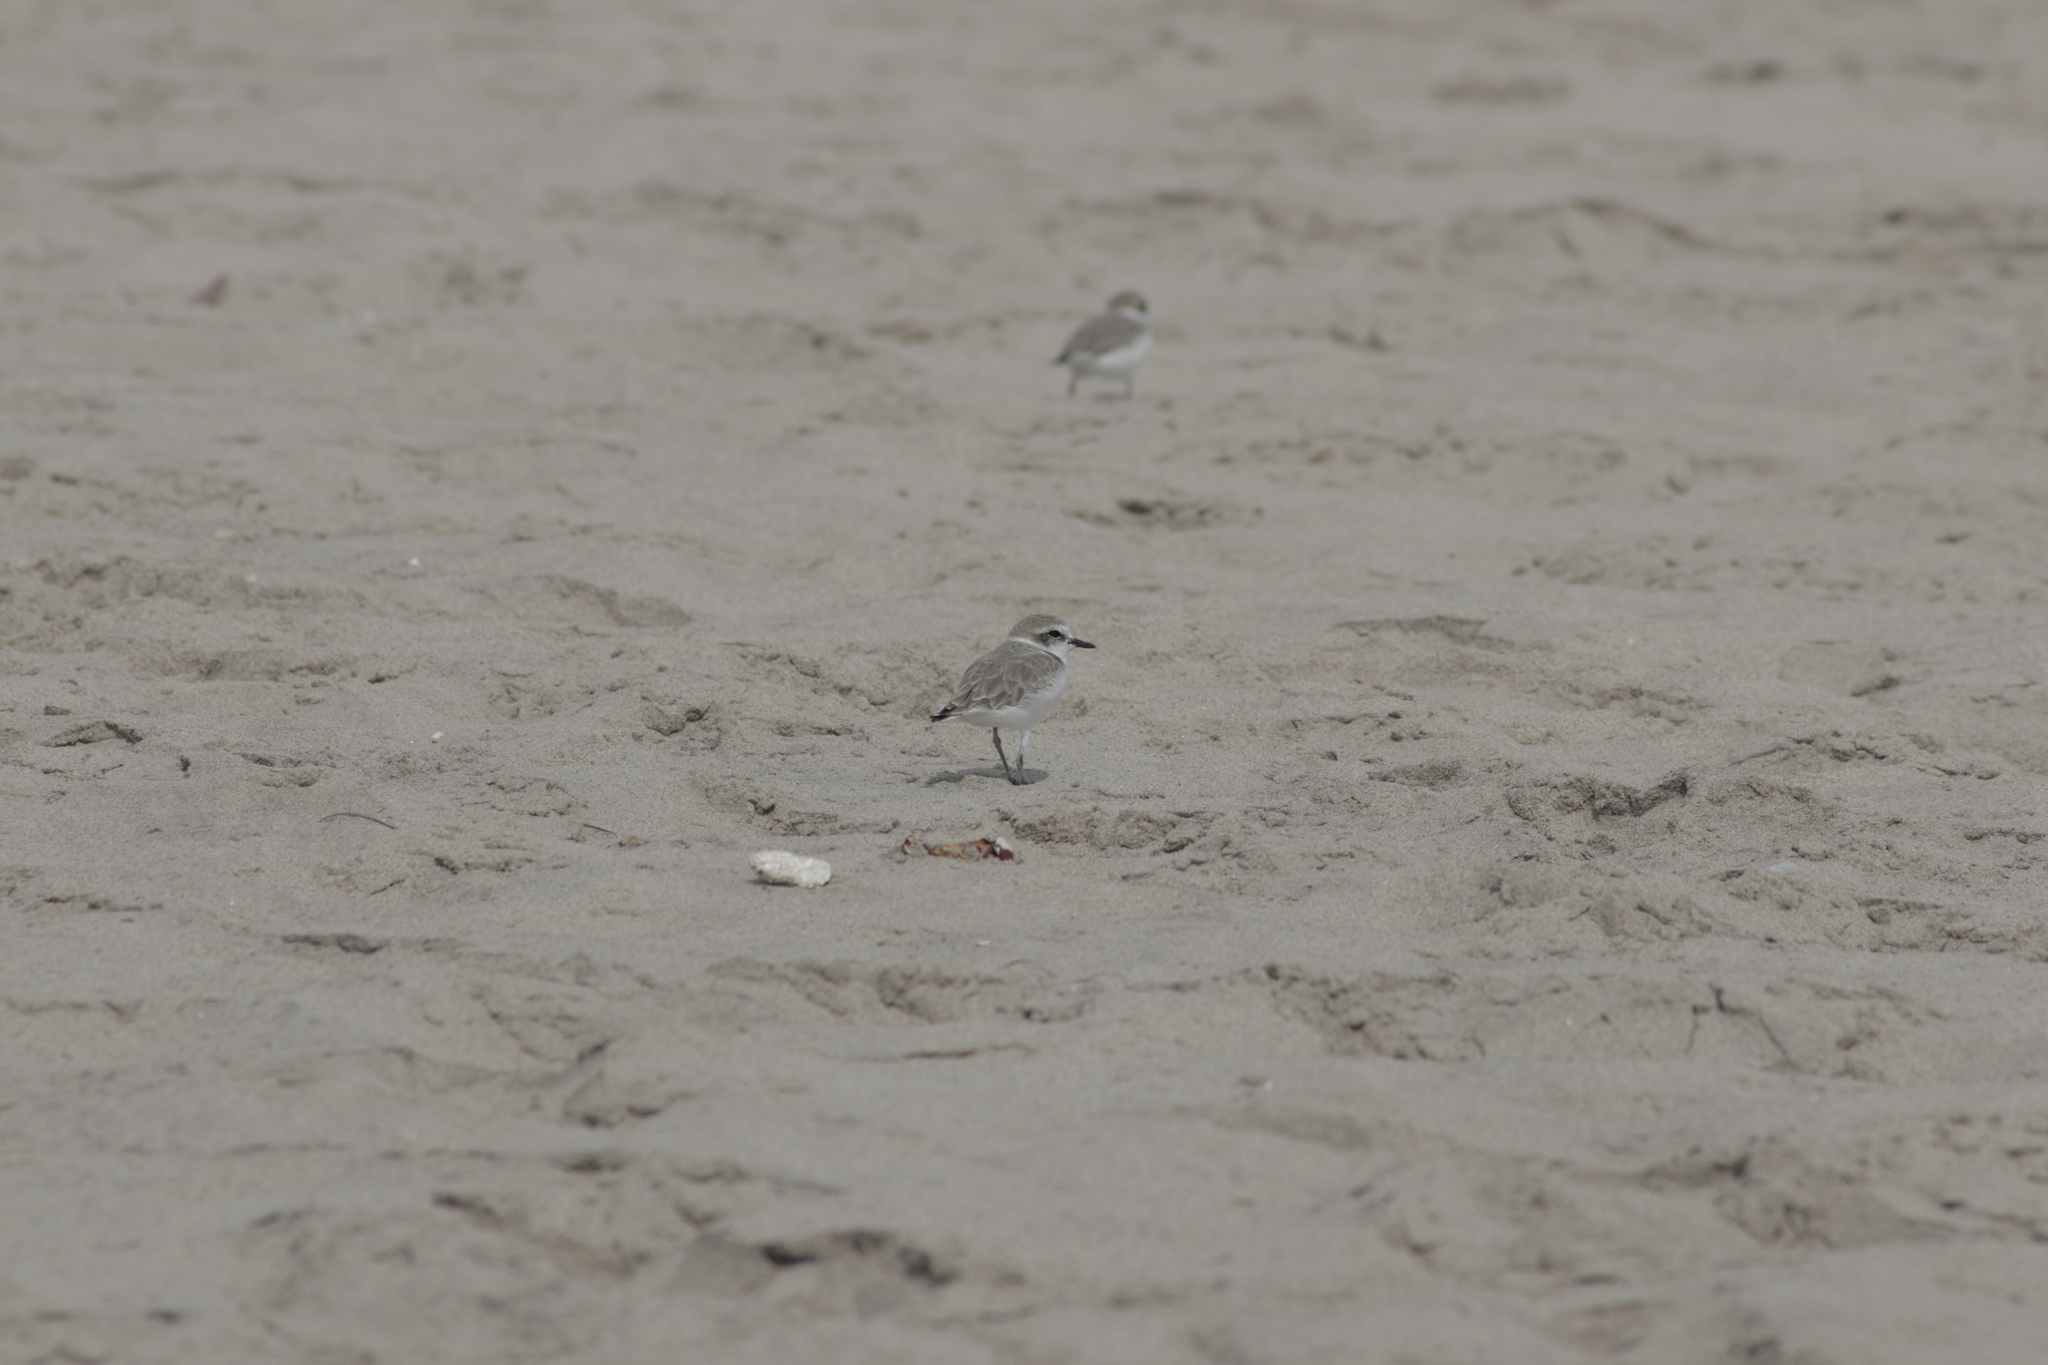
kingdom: Animalia
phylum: Chordata
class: Aves
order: Charadriiformes
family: Charadriidae
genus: Anarhynchus
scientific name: Anarhynchus
